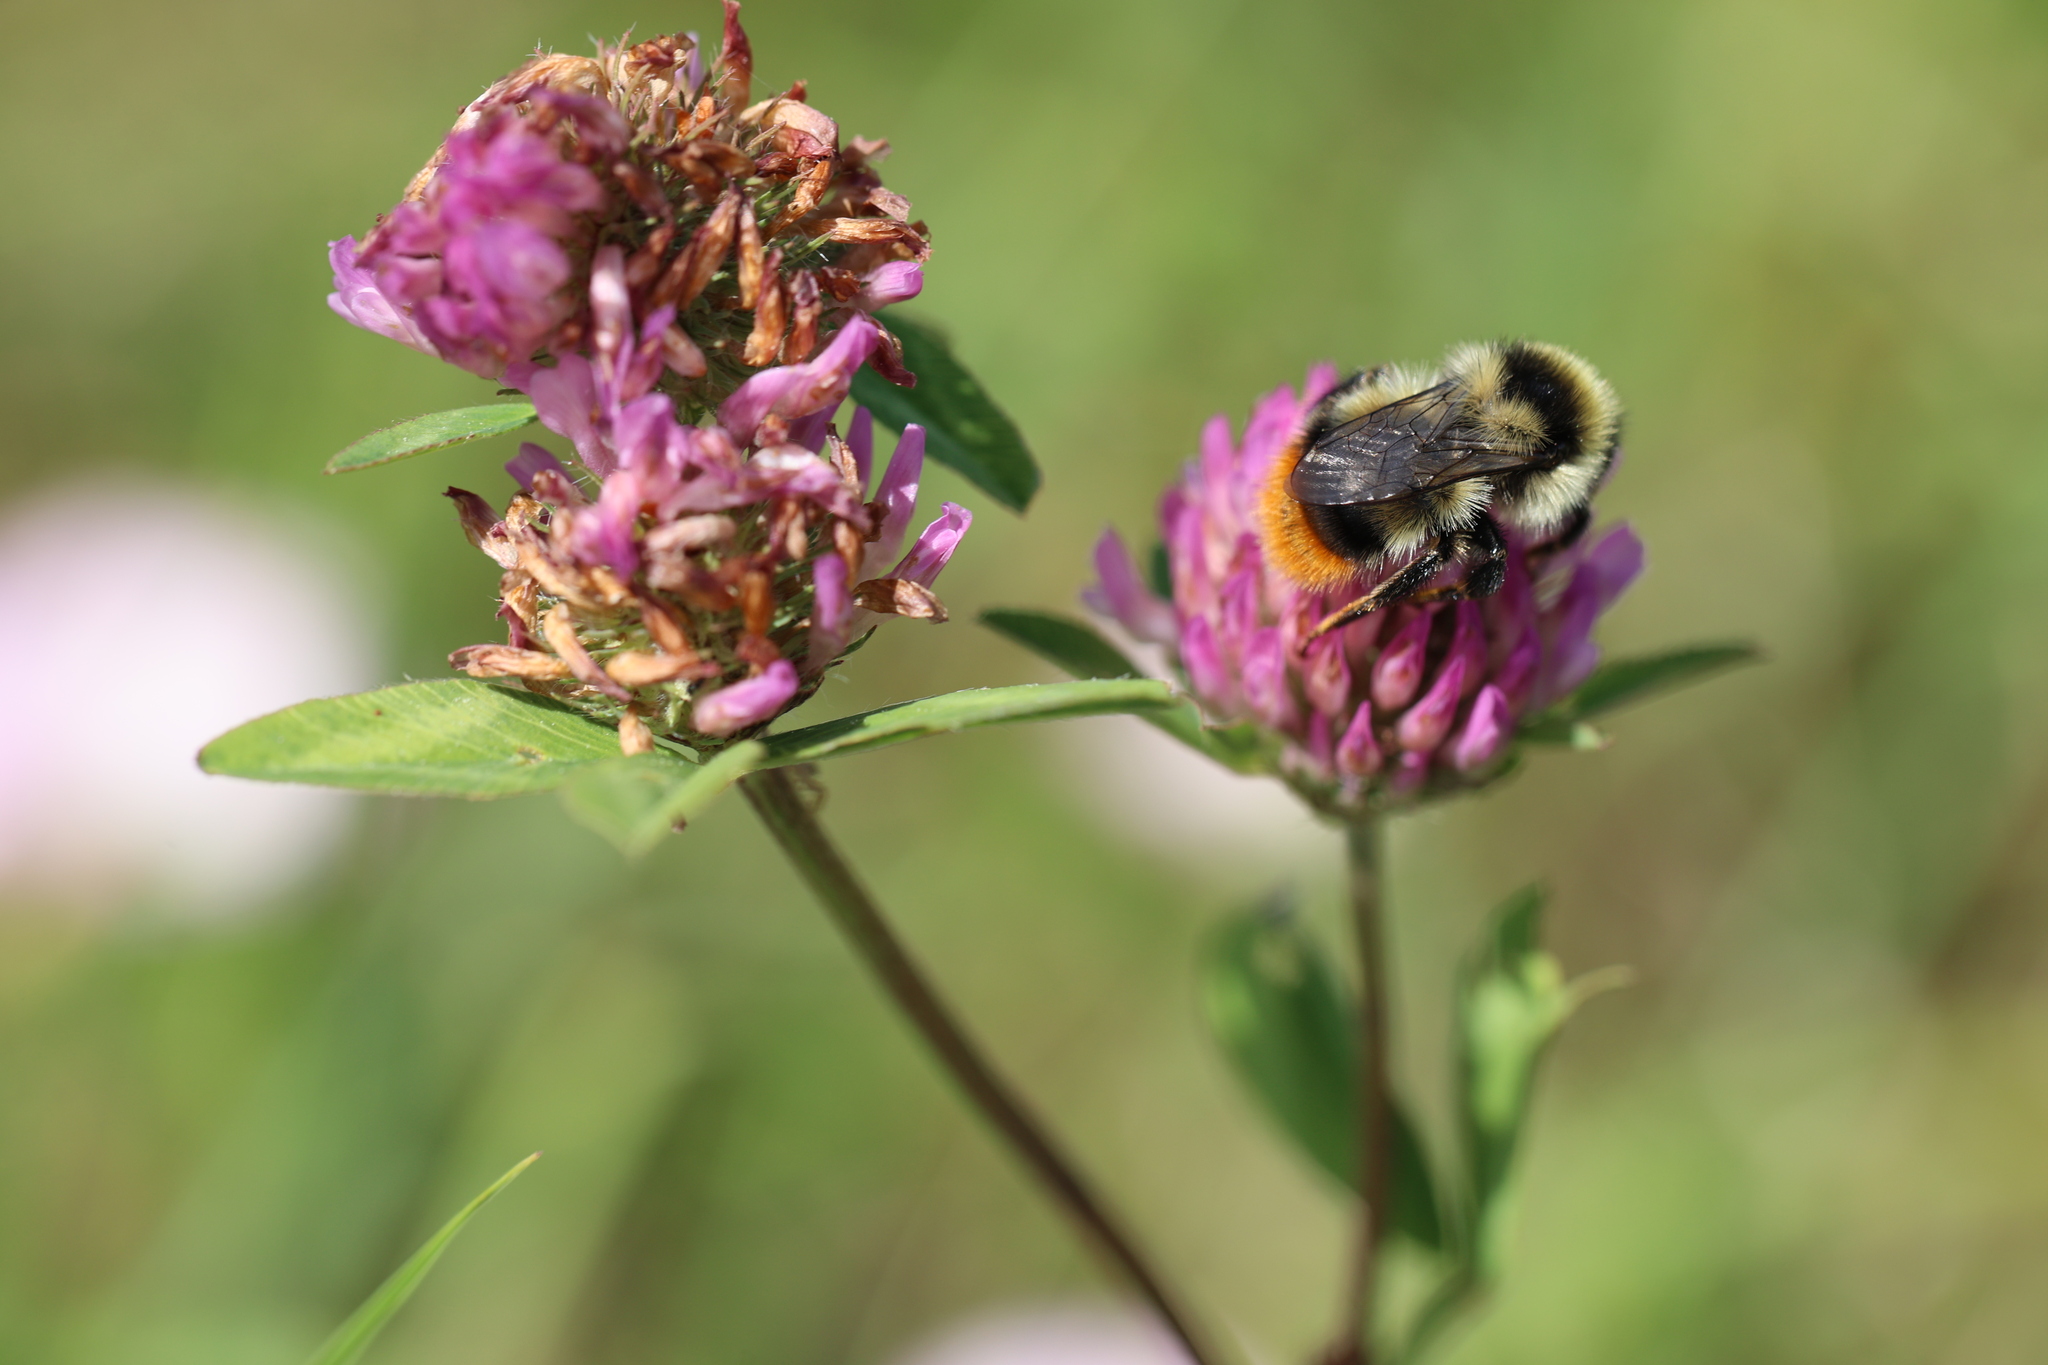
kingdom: Animalia
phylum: Arthropoda
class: Insecta
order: Hymenoptera
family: Apidae
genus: Bombus
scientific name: Bombus ruderarius
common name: Red-shanked carder-bee
